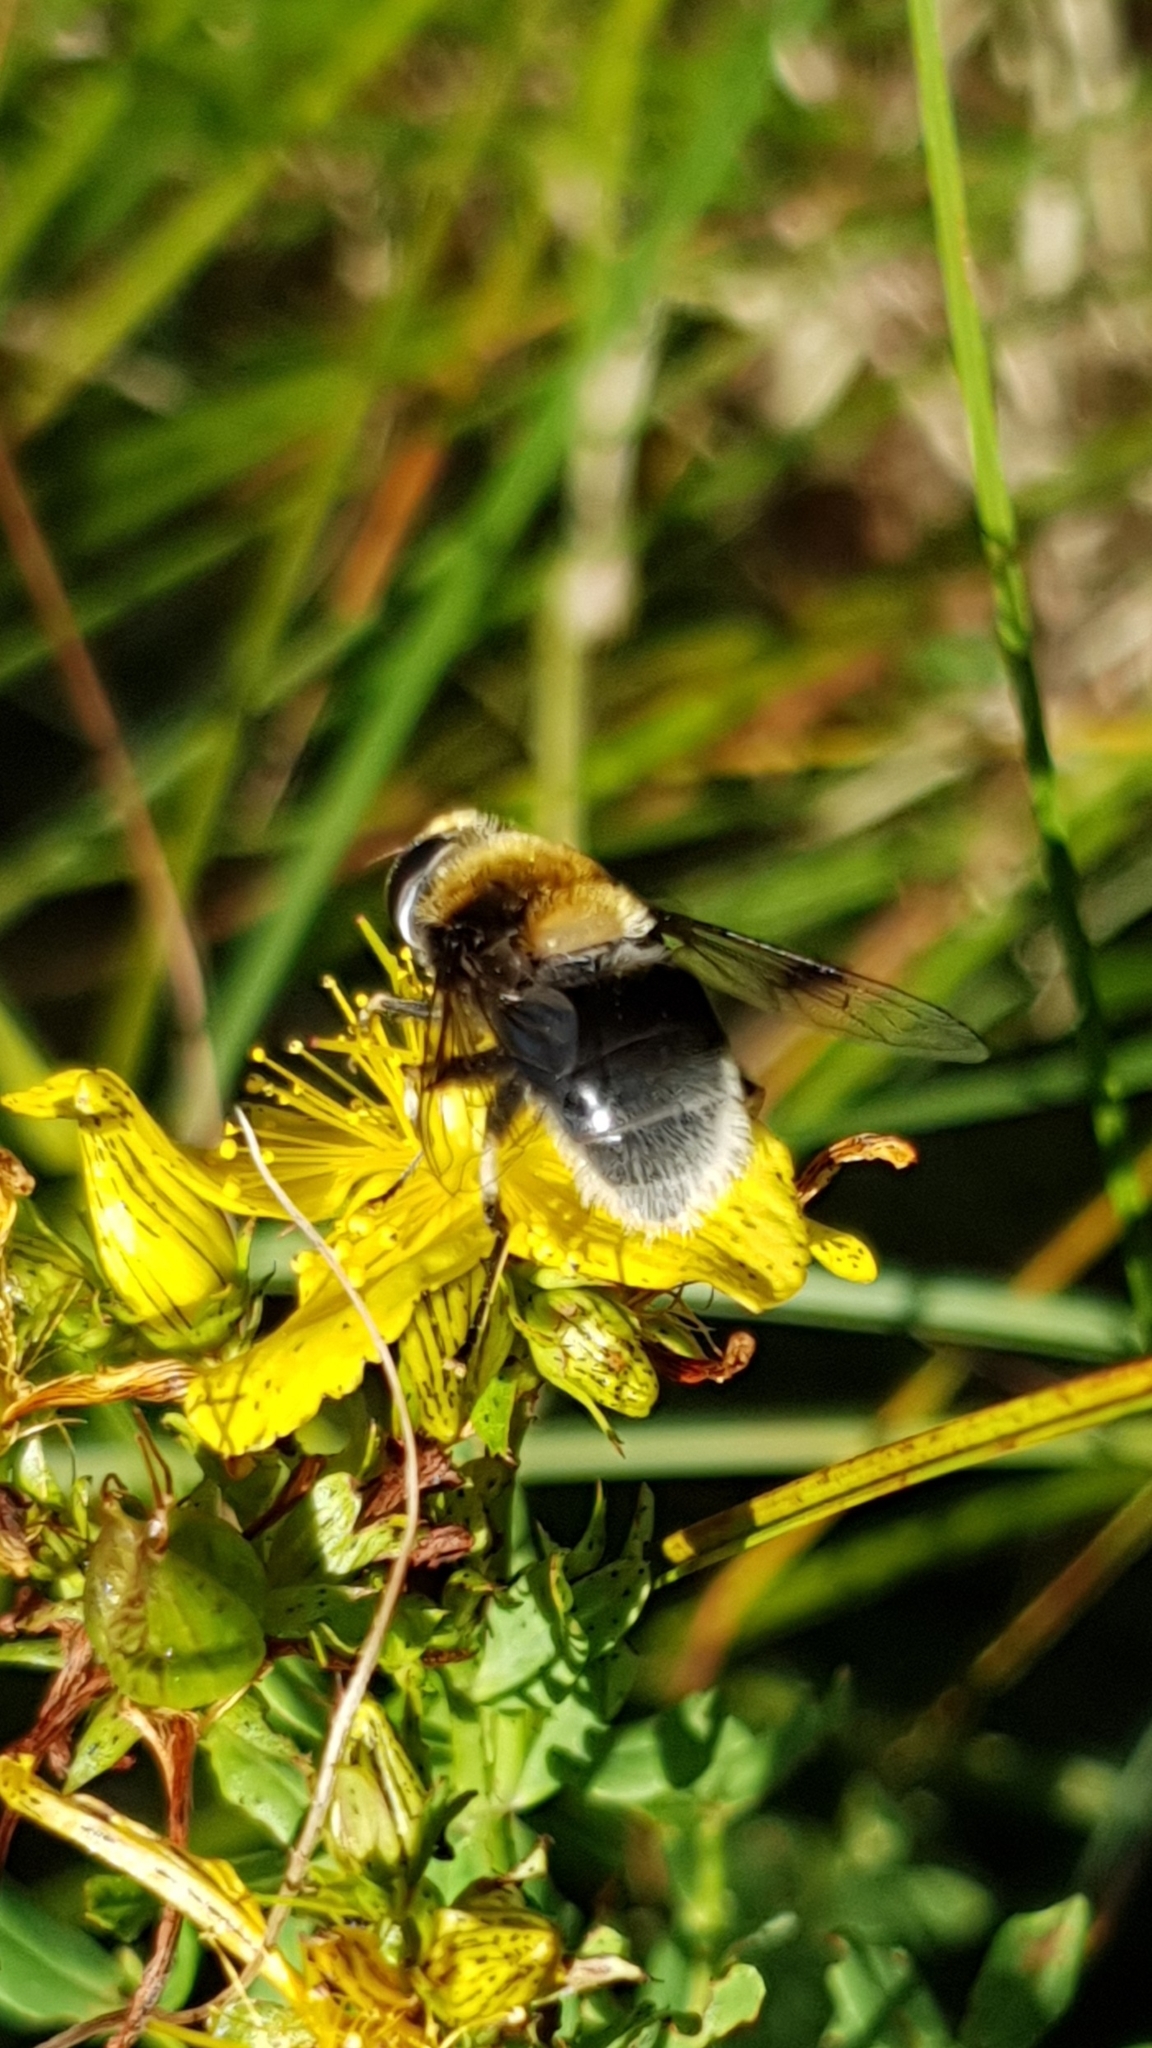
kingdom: Animalia
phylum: Arthropoda
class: Insecta
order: Diptera
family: Syrphidae
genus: Eristalis
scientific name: Eristalis intricaria
